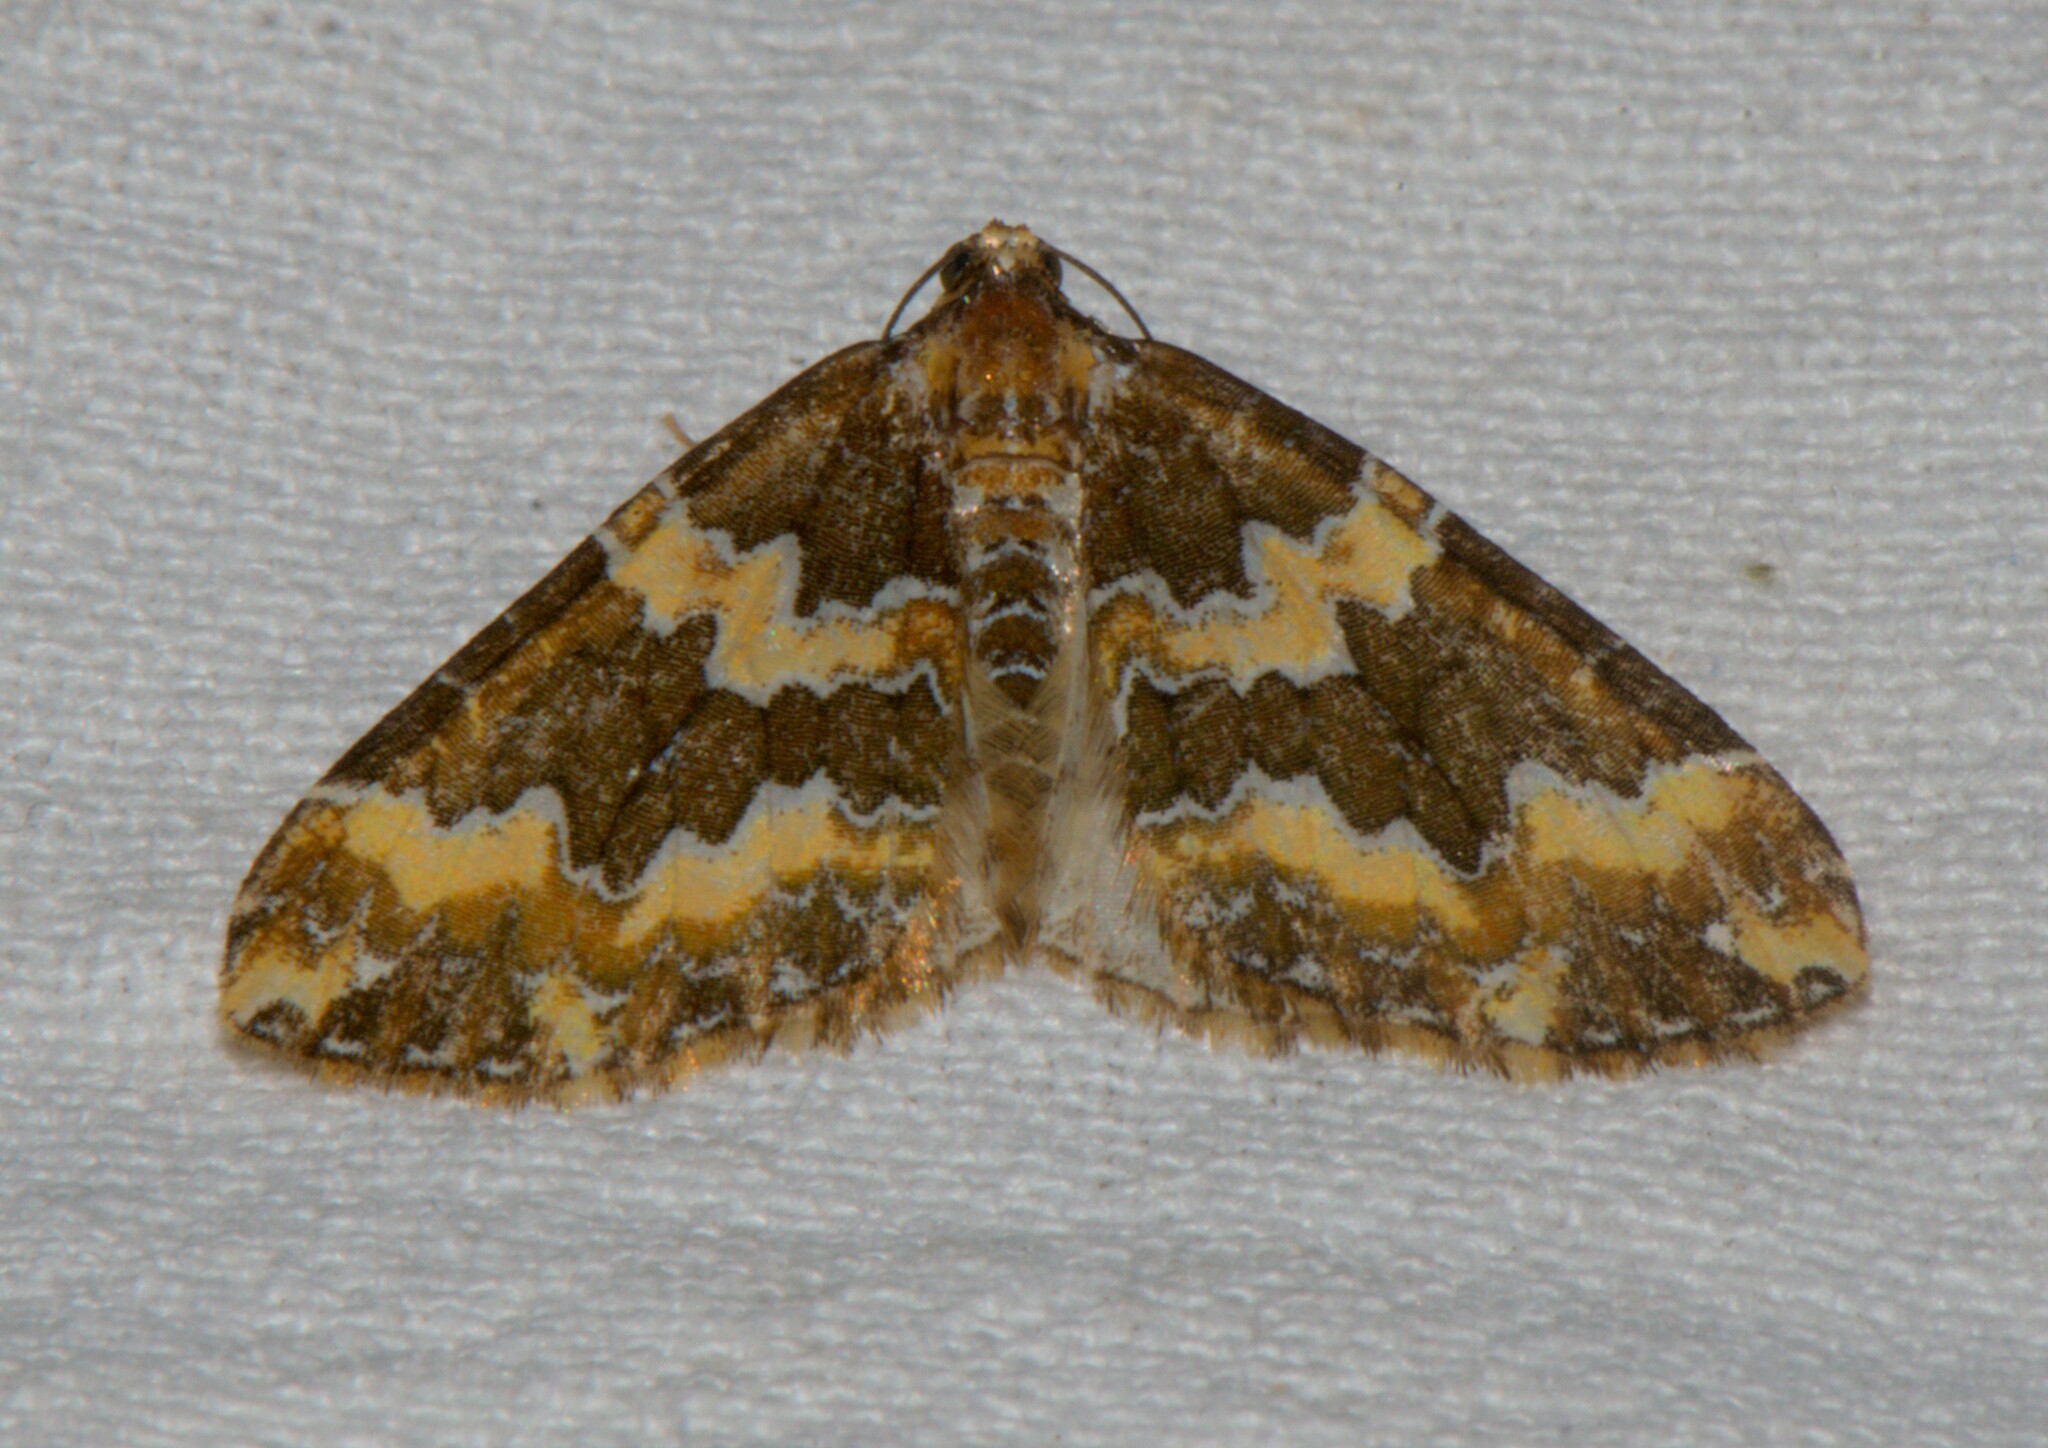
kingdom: Animalia
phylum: Arthropoda
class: Insecta
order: Lepidoptera
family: Geometridae
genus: Electrophaes
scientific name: Electrophaes chrysophaes
